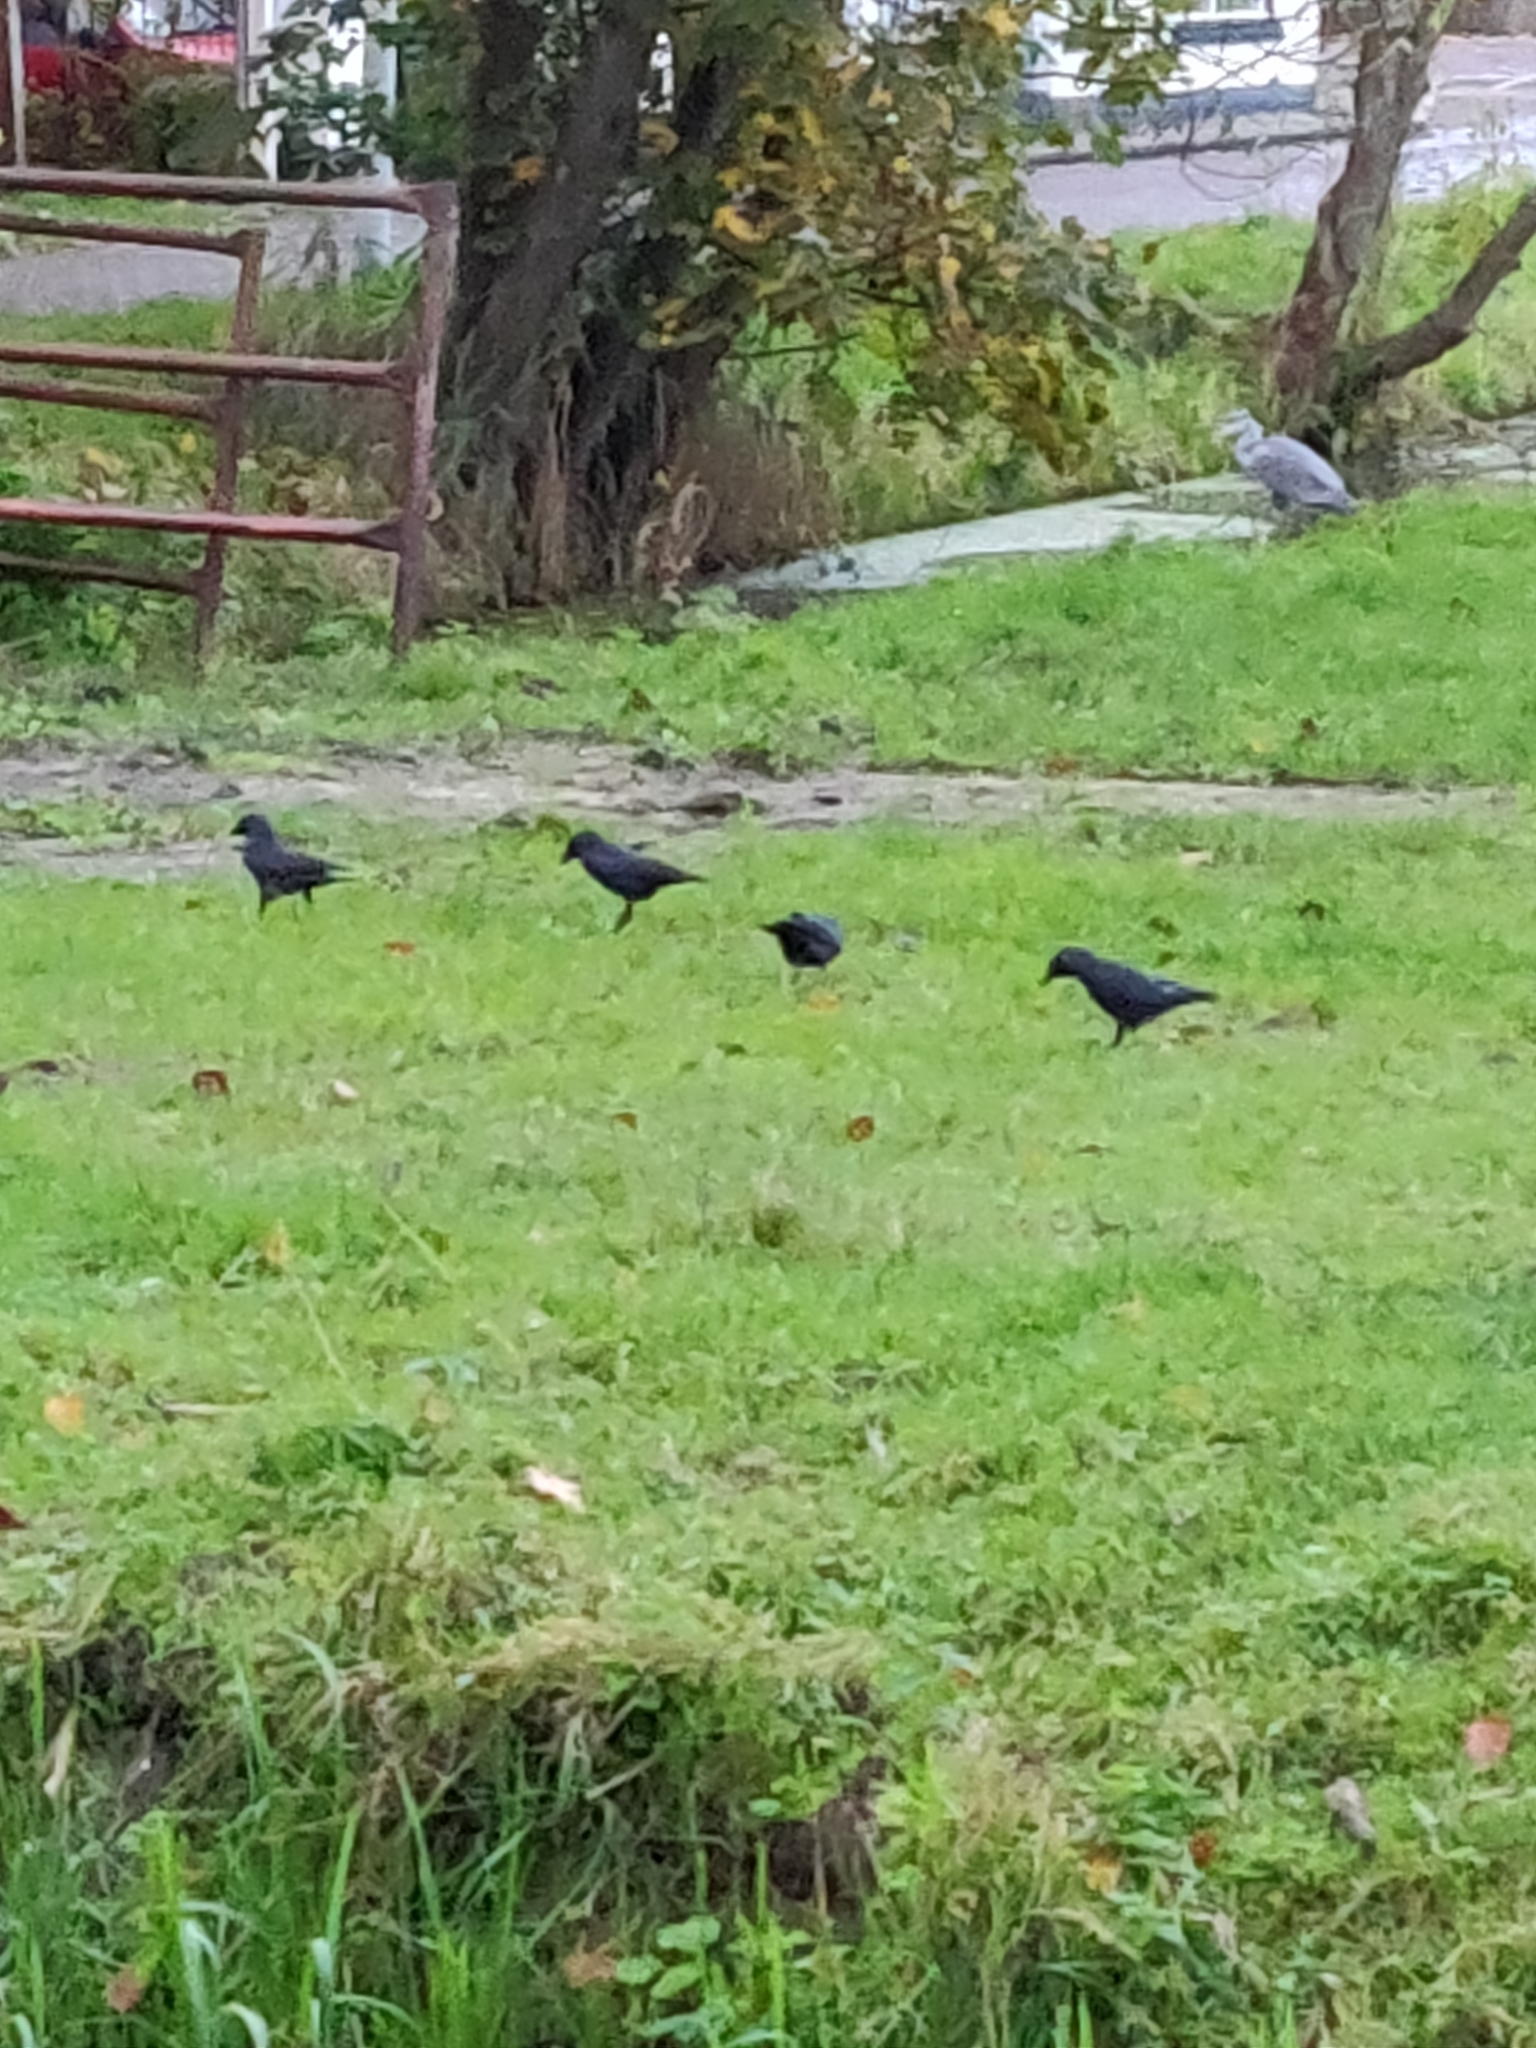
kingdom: Animalia
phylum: Chordata
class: Aves
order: Passeriformes
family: Corvidae
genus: Coloeus
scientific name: Coloeus monedula
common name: Western jackdaw
